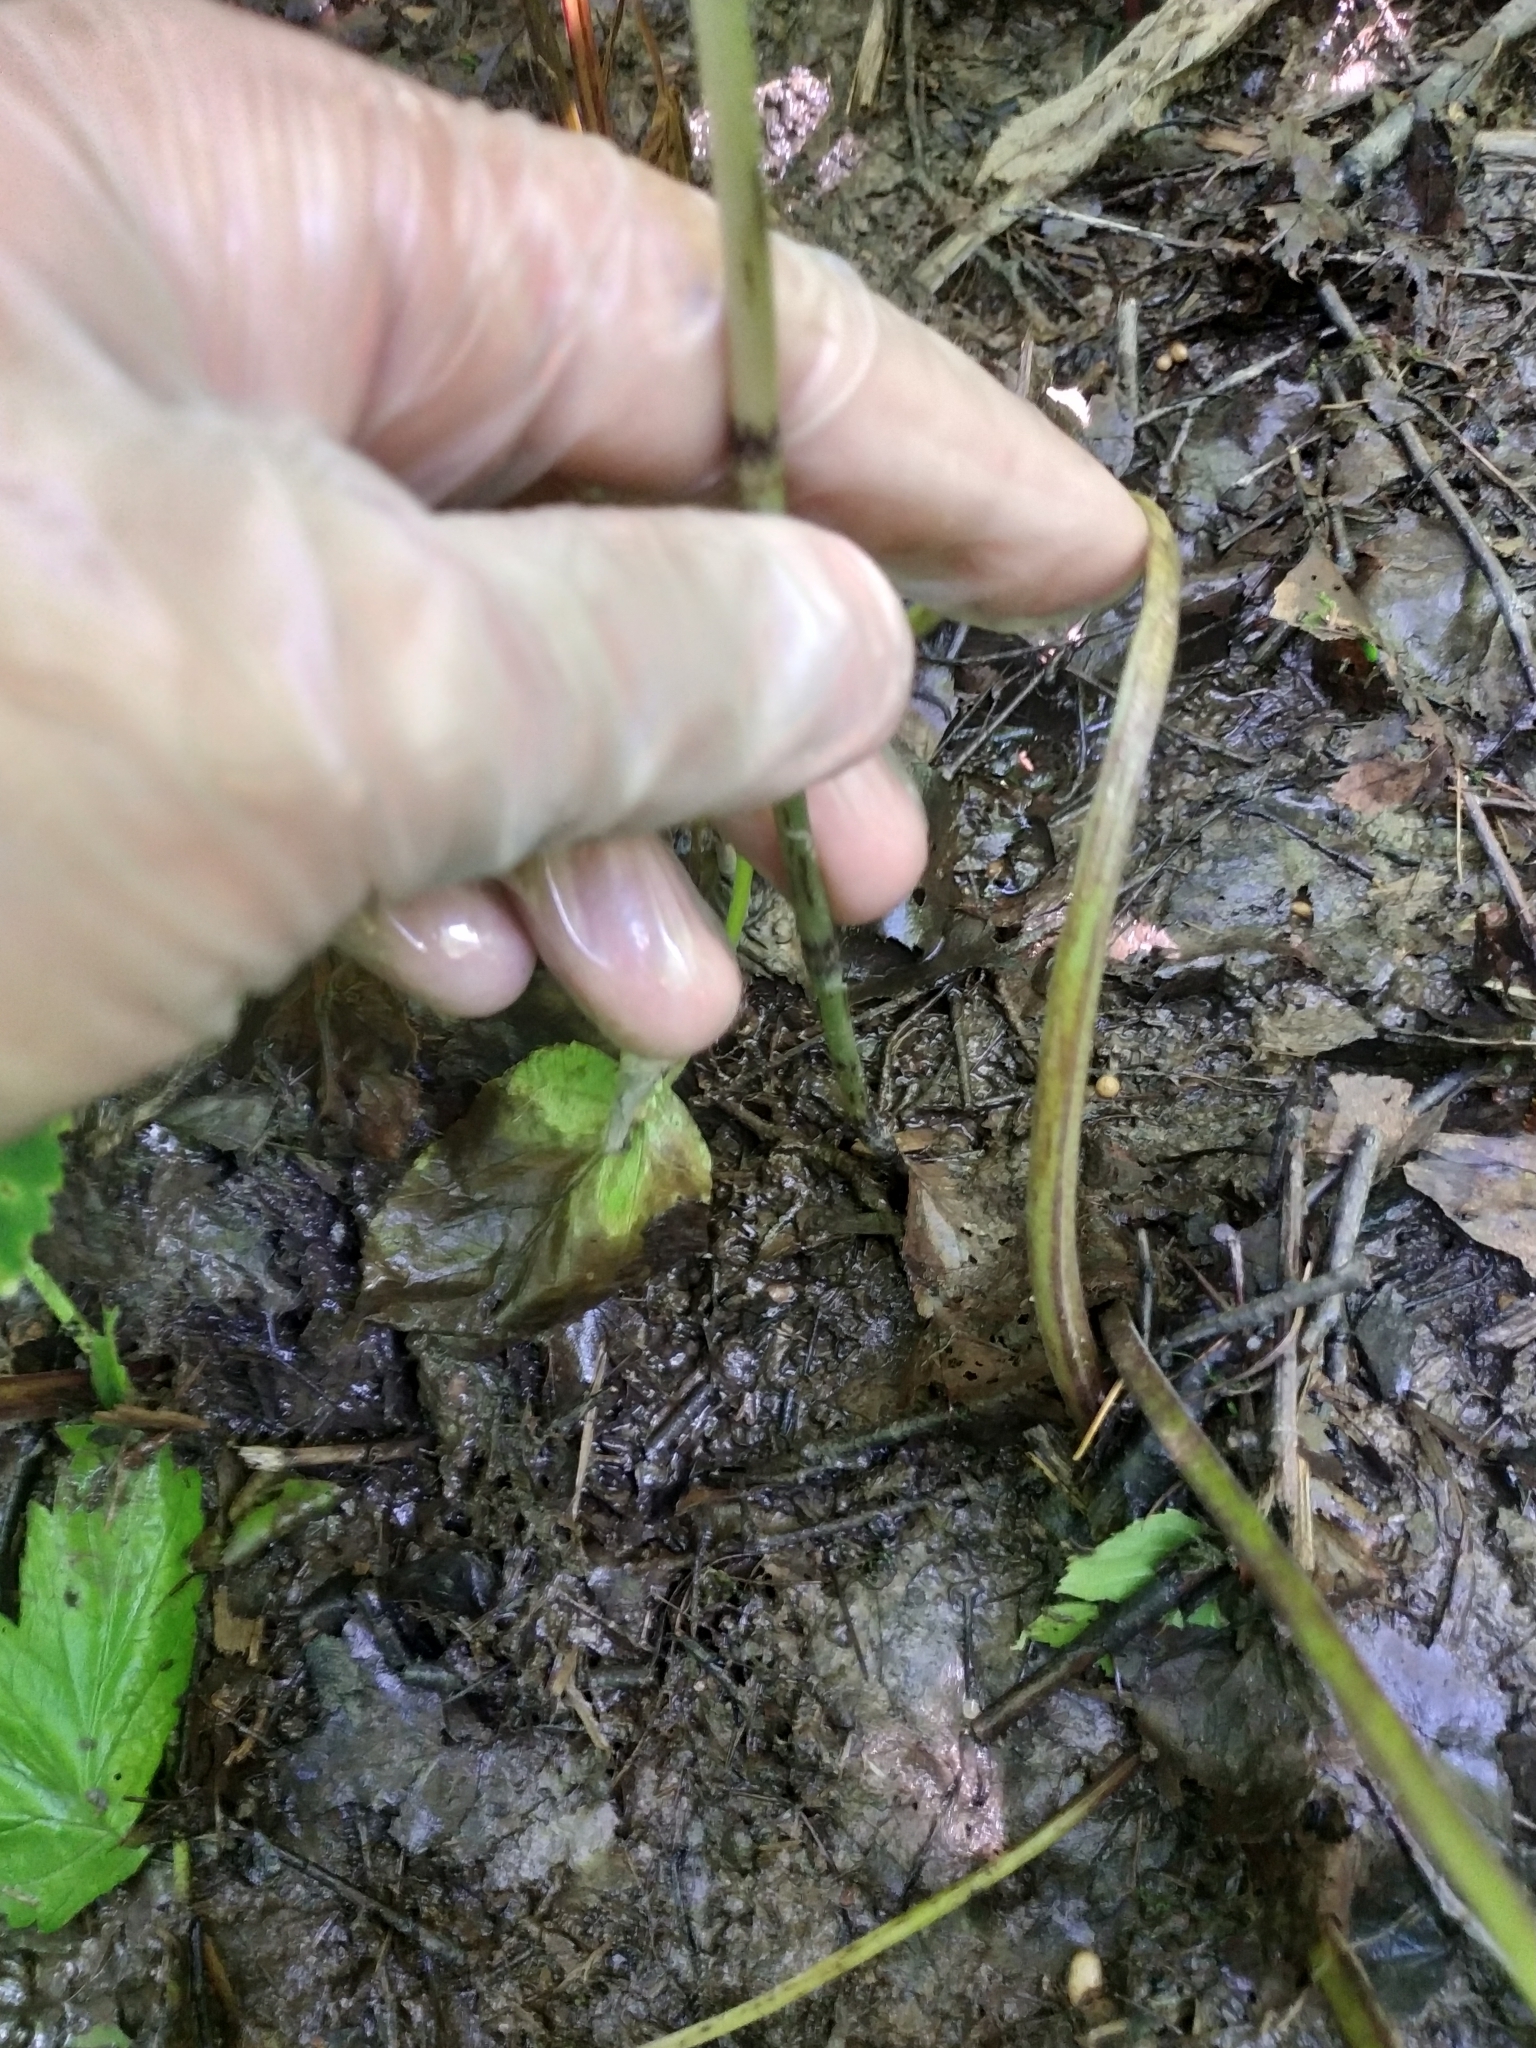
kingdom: Plantae
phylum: Tracheophyta
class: Polypodiopsida
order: Equisetales
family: Equisetaceae
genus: Equisetum
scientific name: Equisetum arvense
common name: Field horsetail
